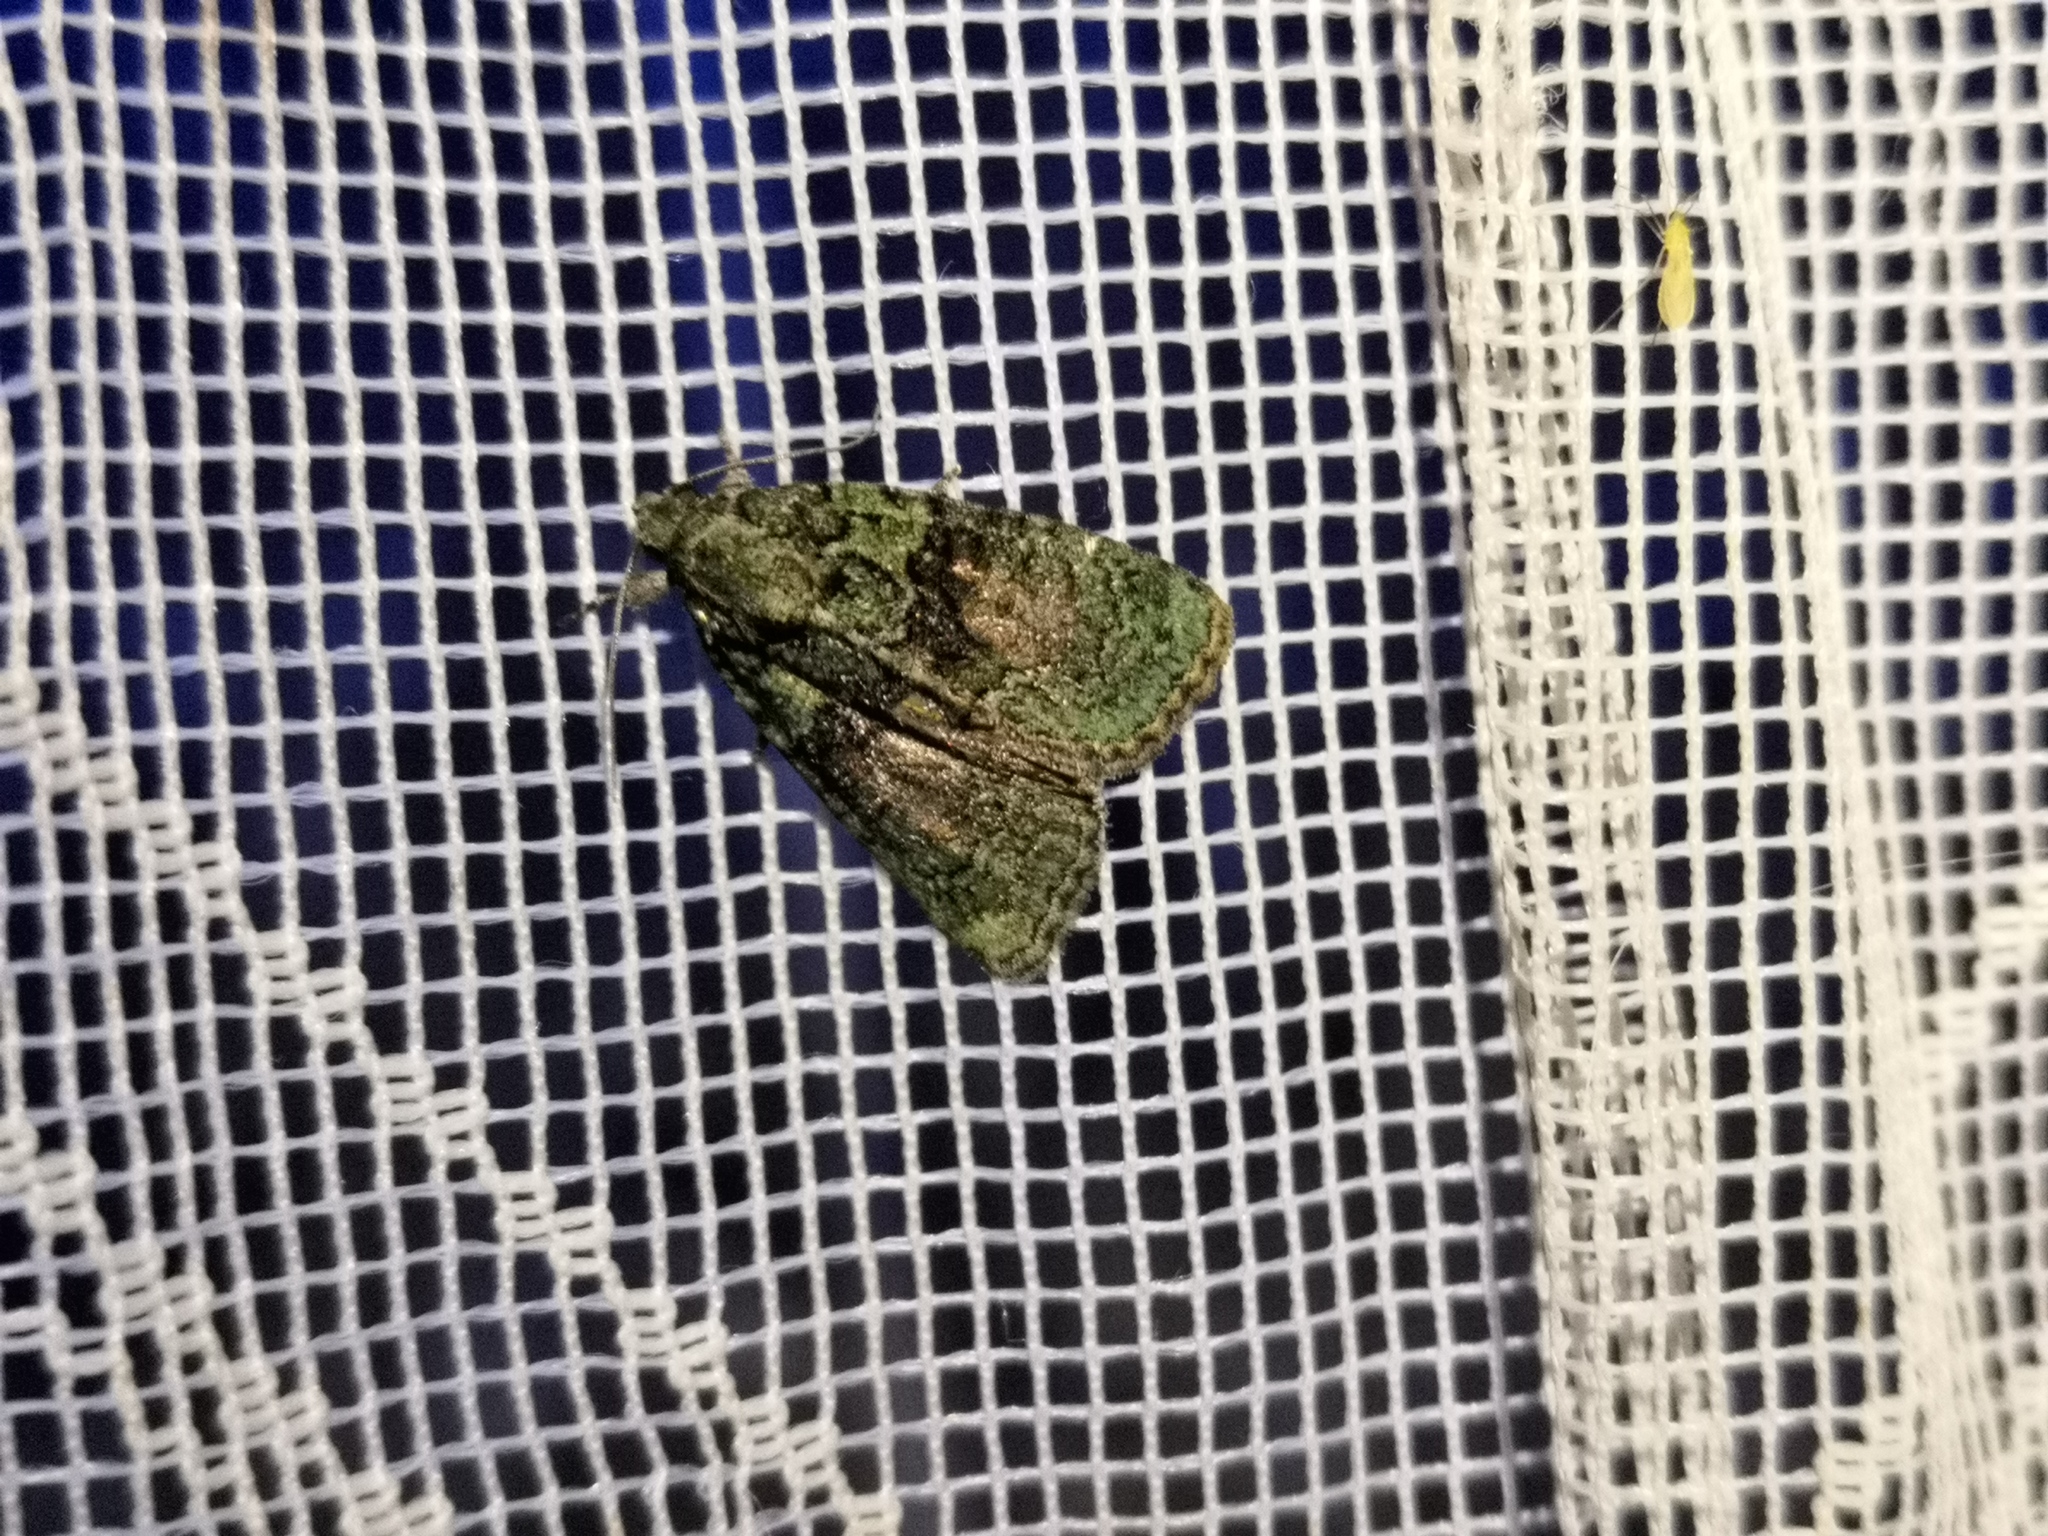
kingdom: Animalia
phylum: Arthropoda
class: Insecta
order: Lepidoptera
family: Noctuidae
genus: Cryphia
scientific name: Cryphia algae
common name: Tree-lichen beauty
